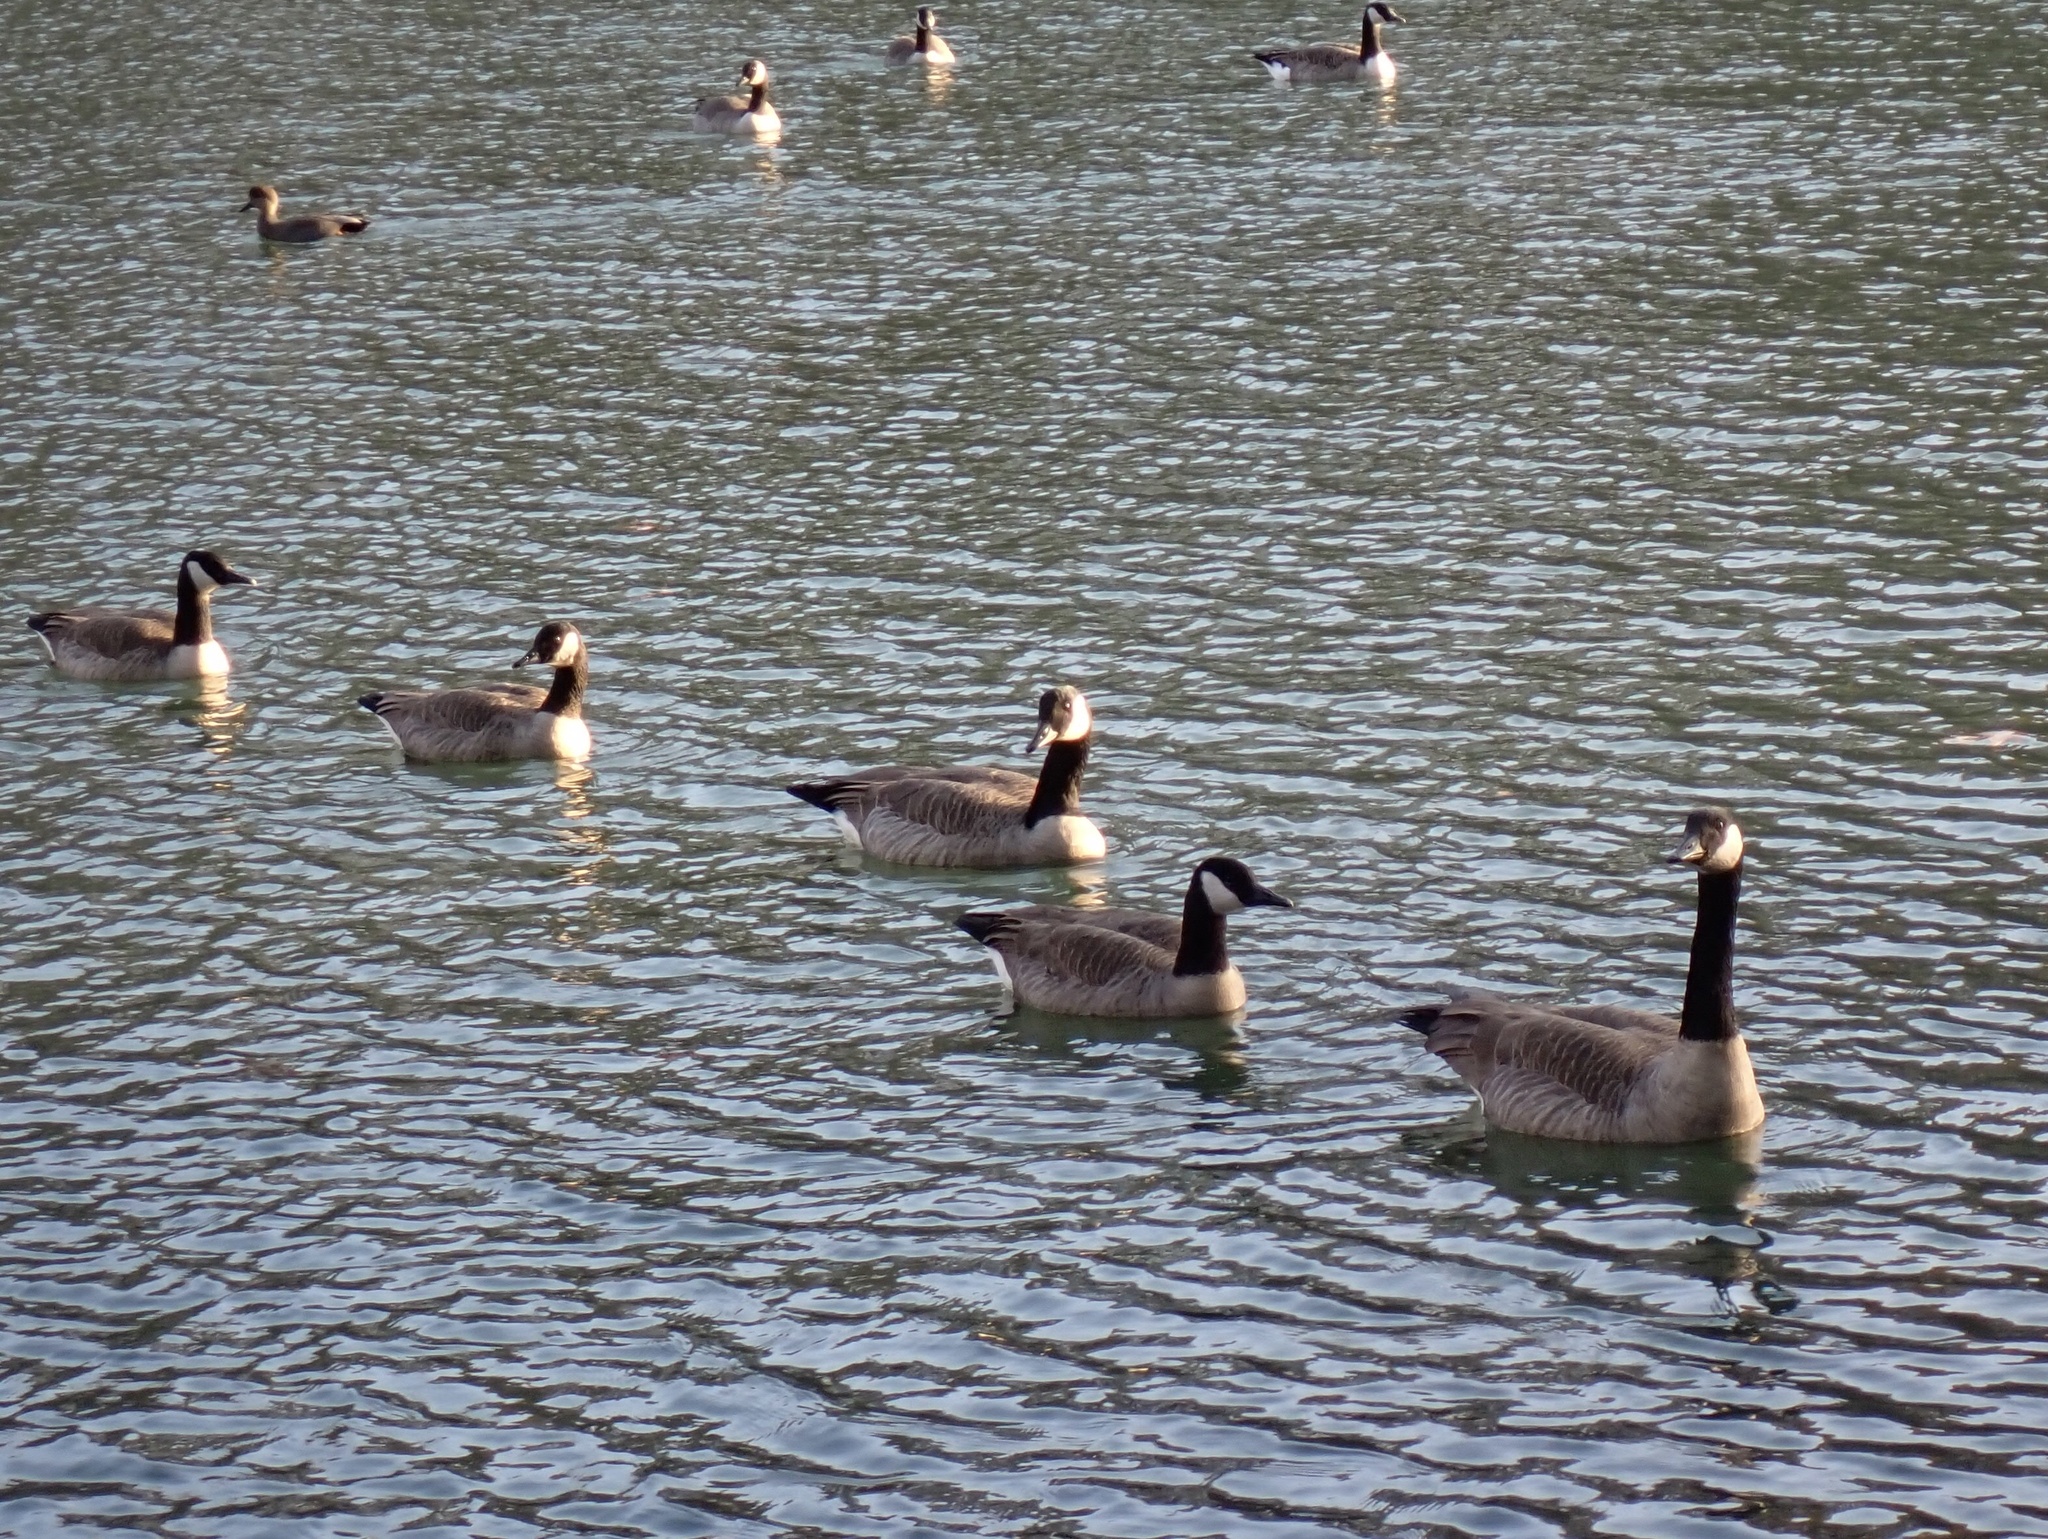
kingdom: Animalia
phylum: Chordata
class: Aves
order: Anseriformes
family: Anatidae
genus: Branta
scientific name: Branta canadensis
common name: Canada goose
